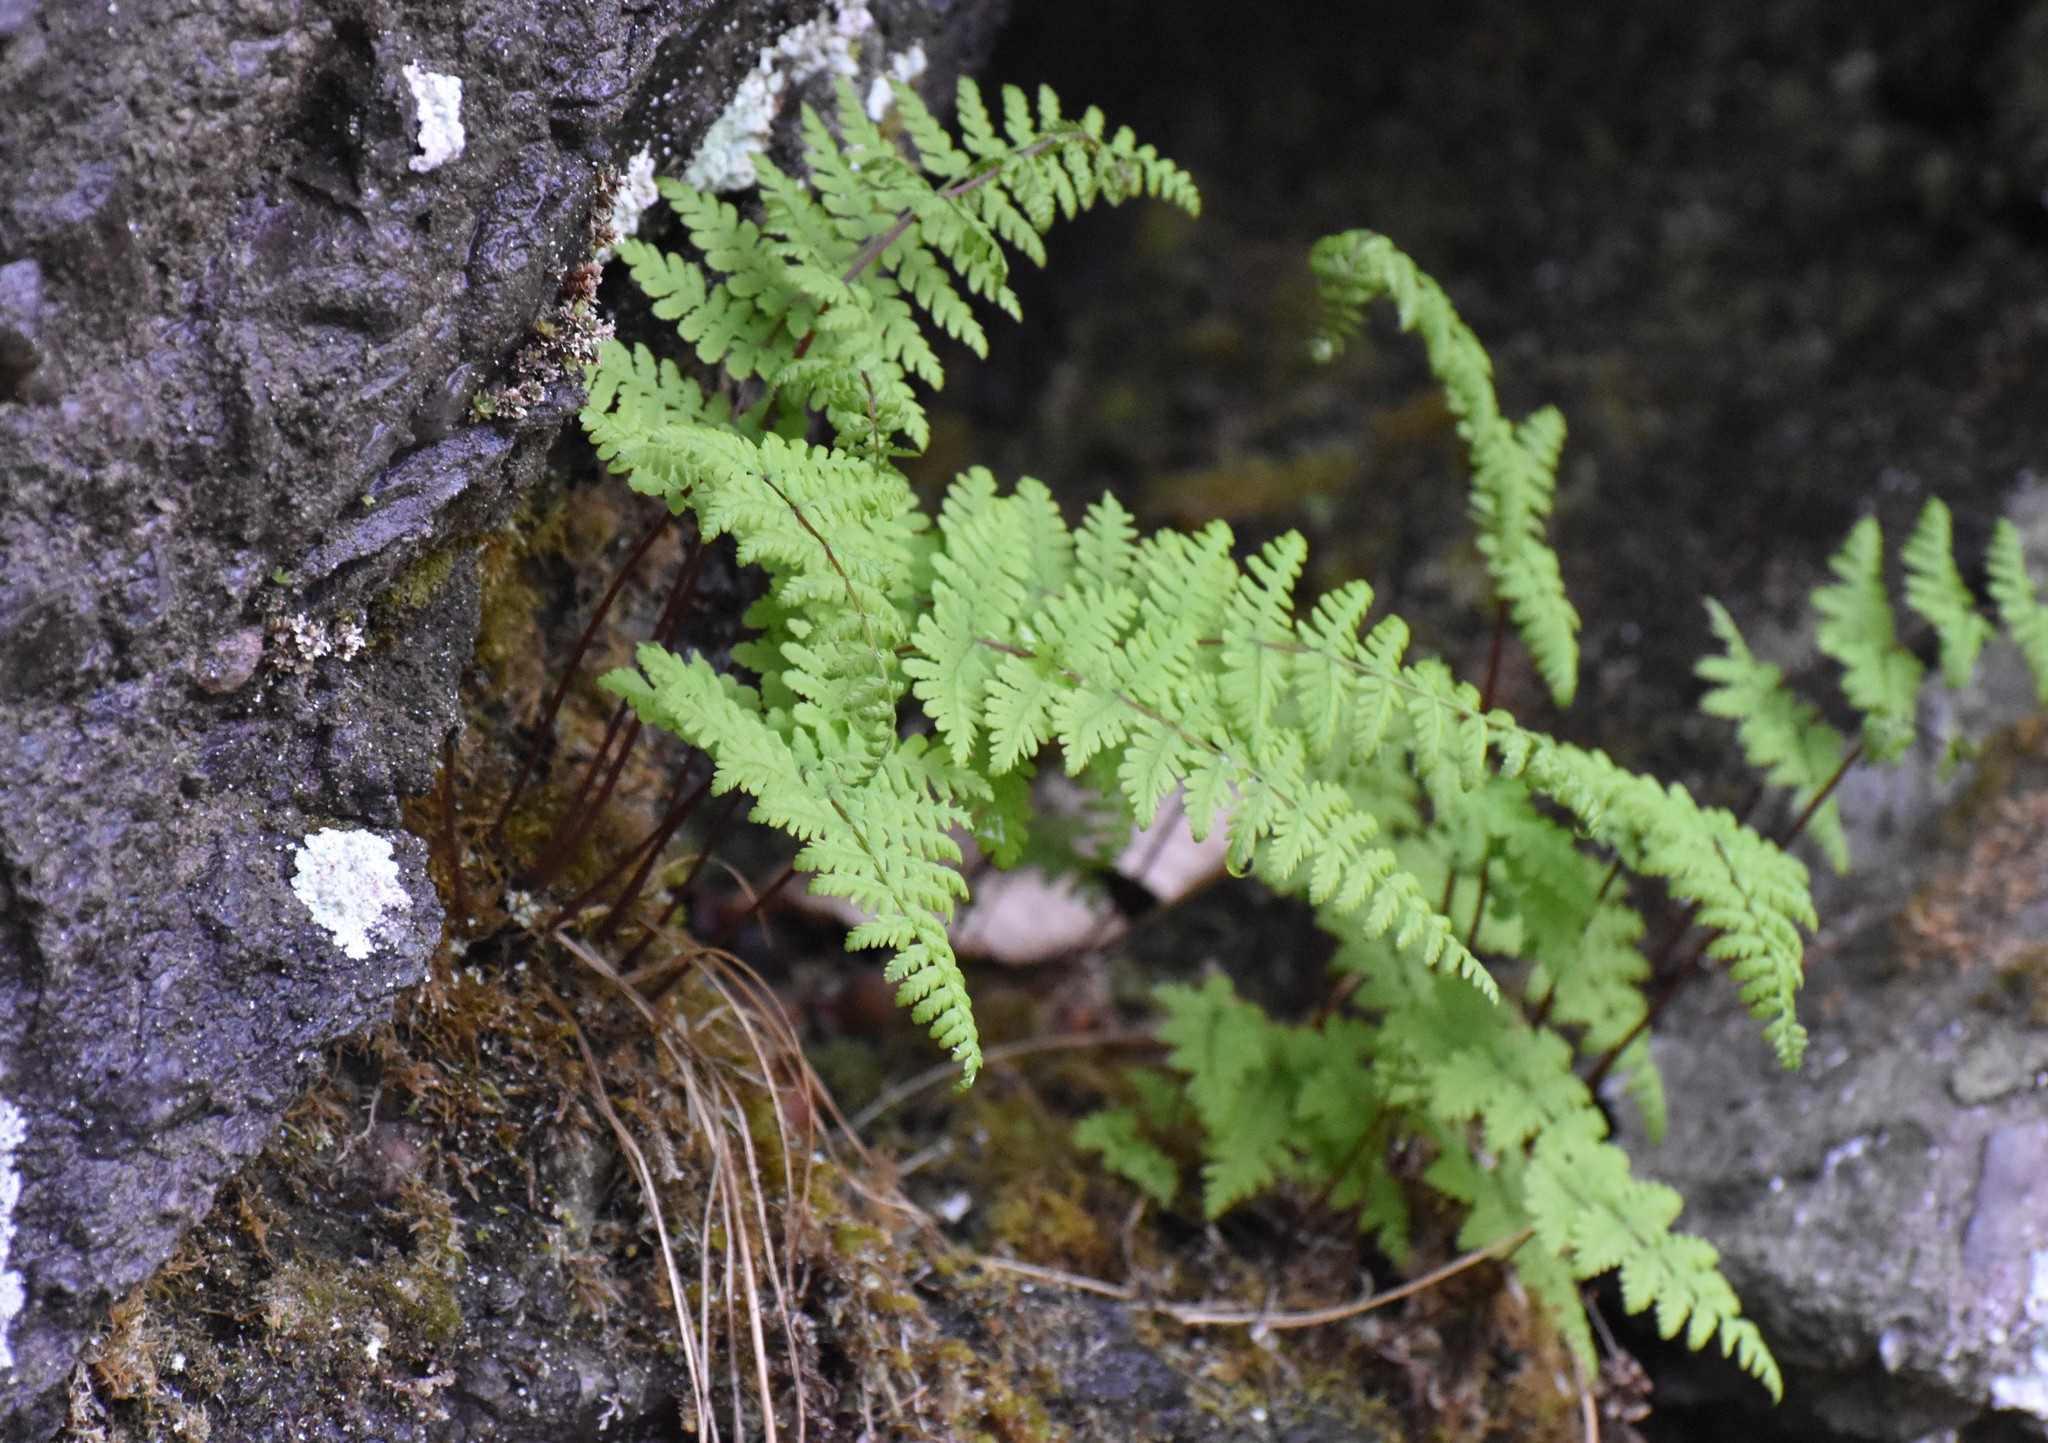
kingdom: Plantae
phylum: Tracheophyta
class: Polypodiopsida
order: Polypodiales
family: Cystopteridaceae
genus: Cystopteris
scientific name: Cystopteris bulbifera
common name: Bulblet bladder fern
